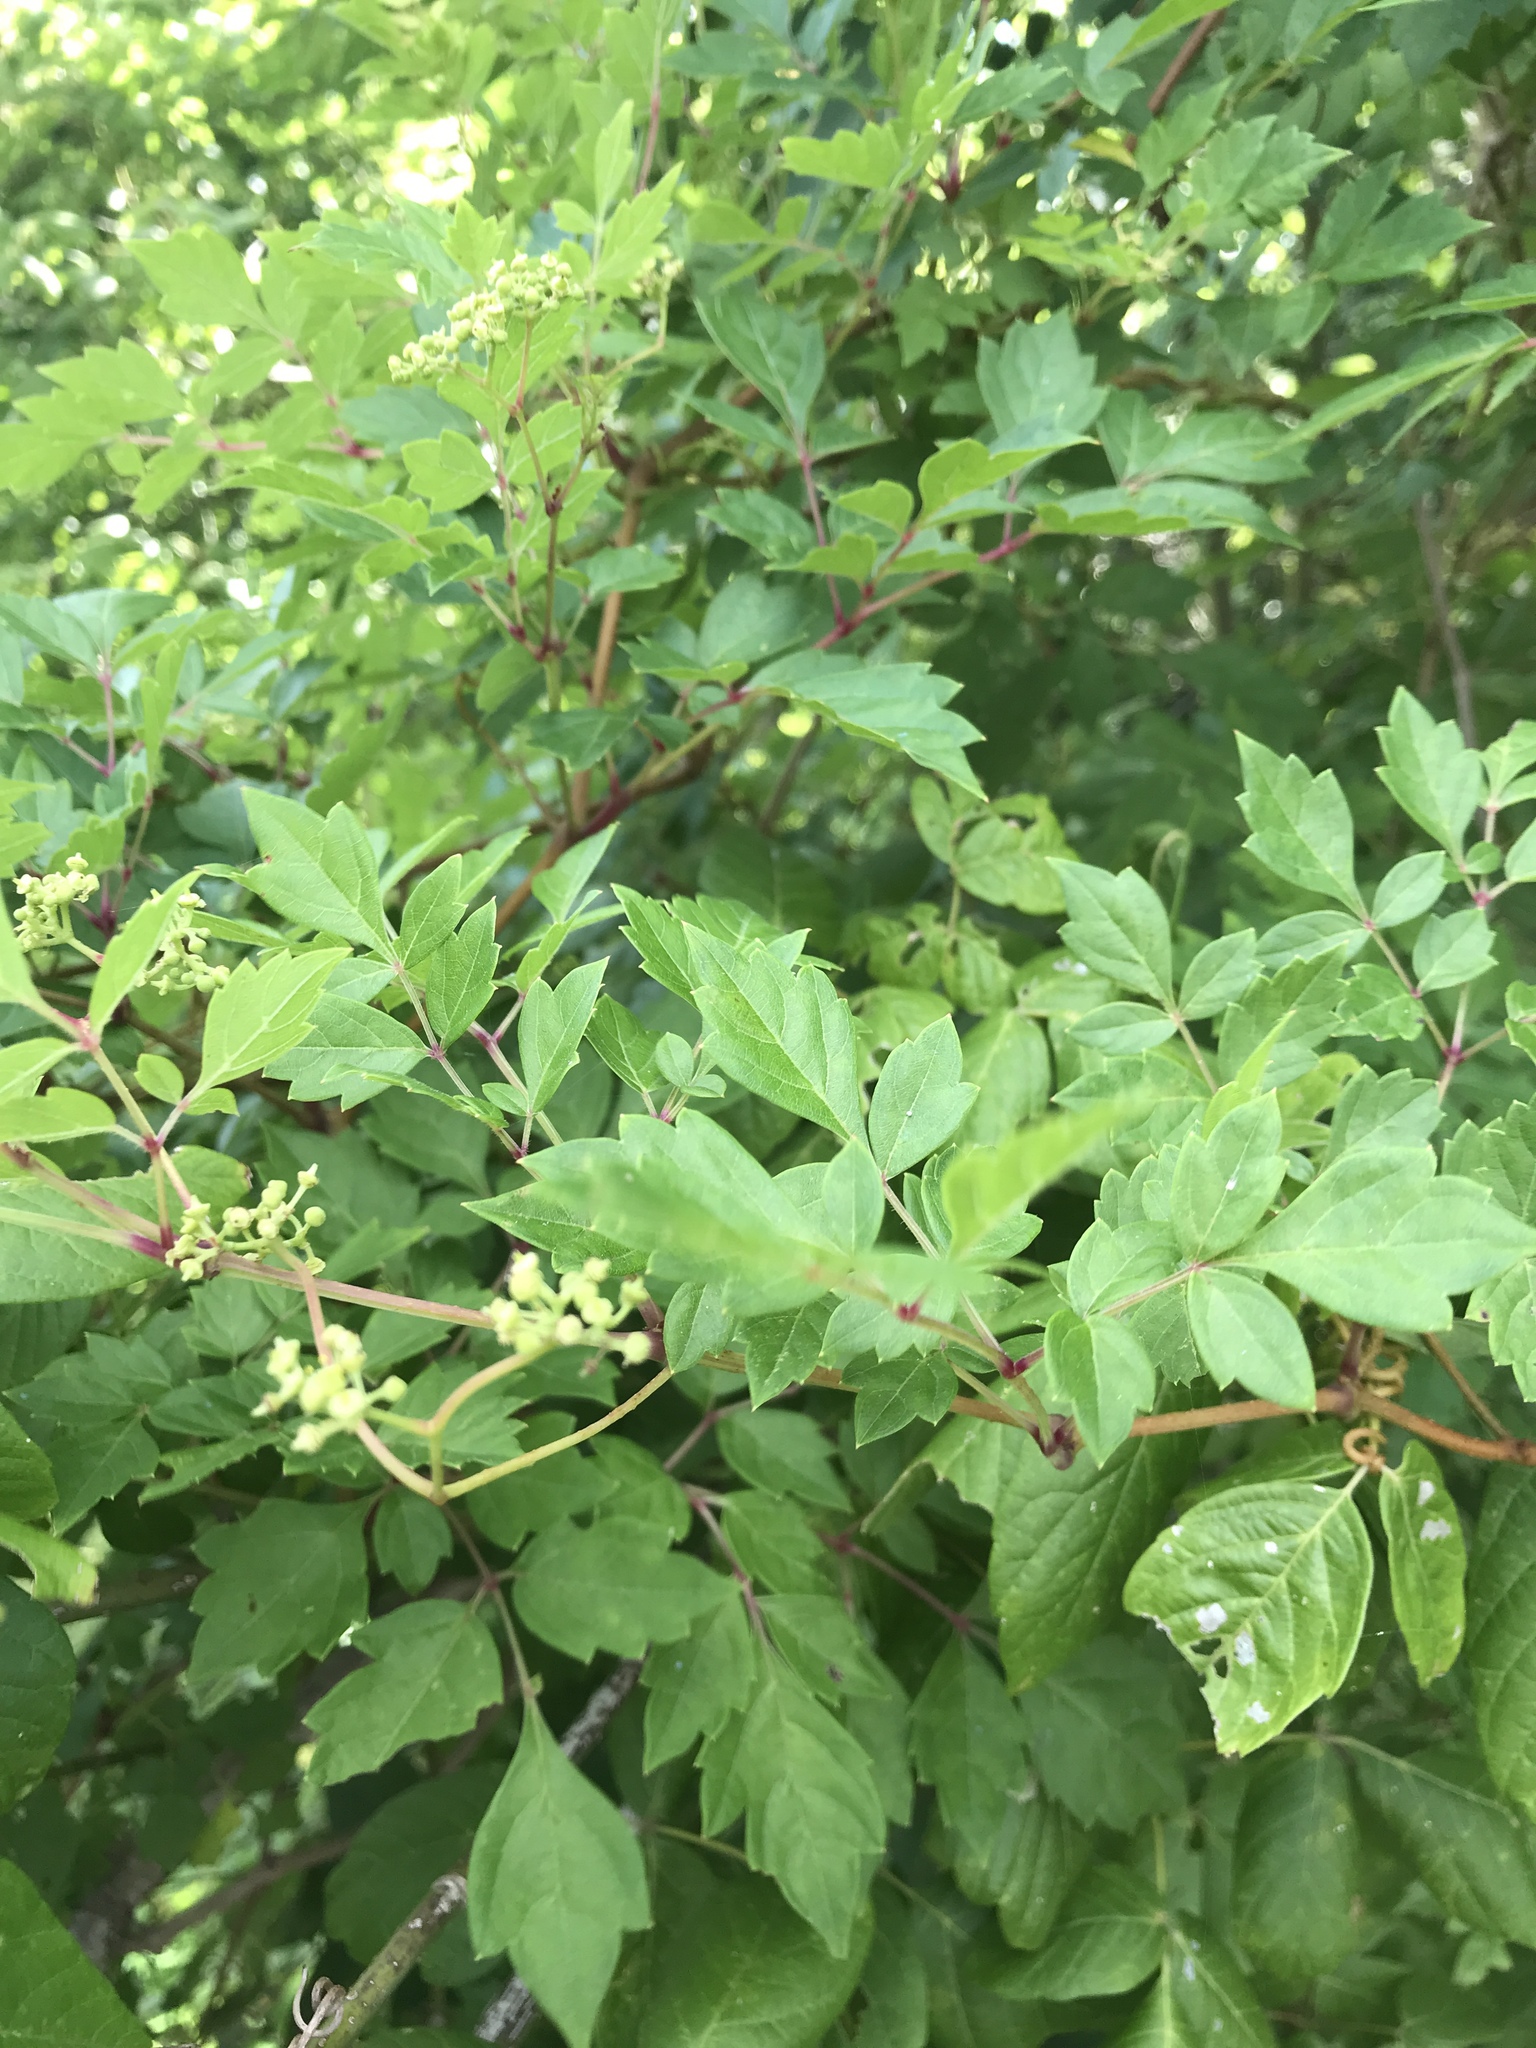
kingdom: Plantae
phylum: Tracheophyta
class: Magnoliopsida
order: Vitales
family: Vitaceae
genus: Nekemias
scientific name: Nekemias arborea
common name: Peppervine
